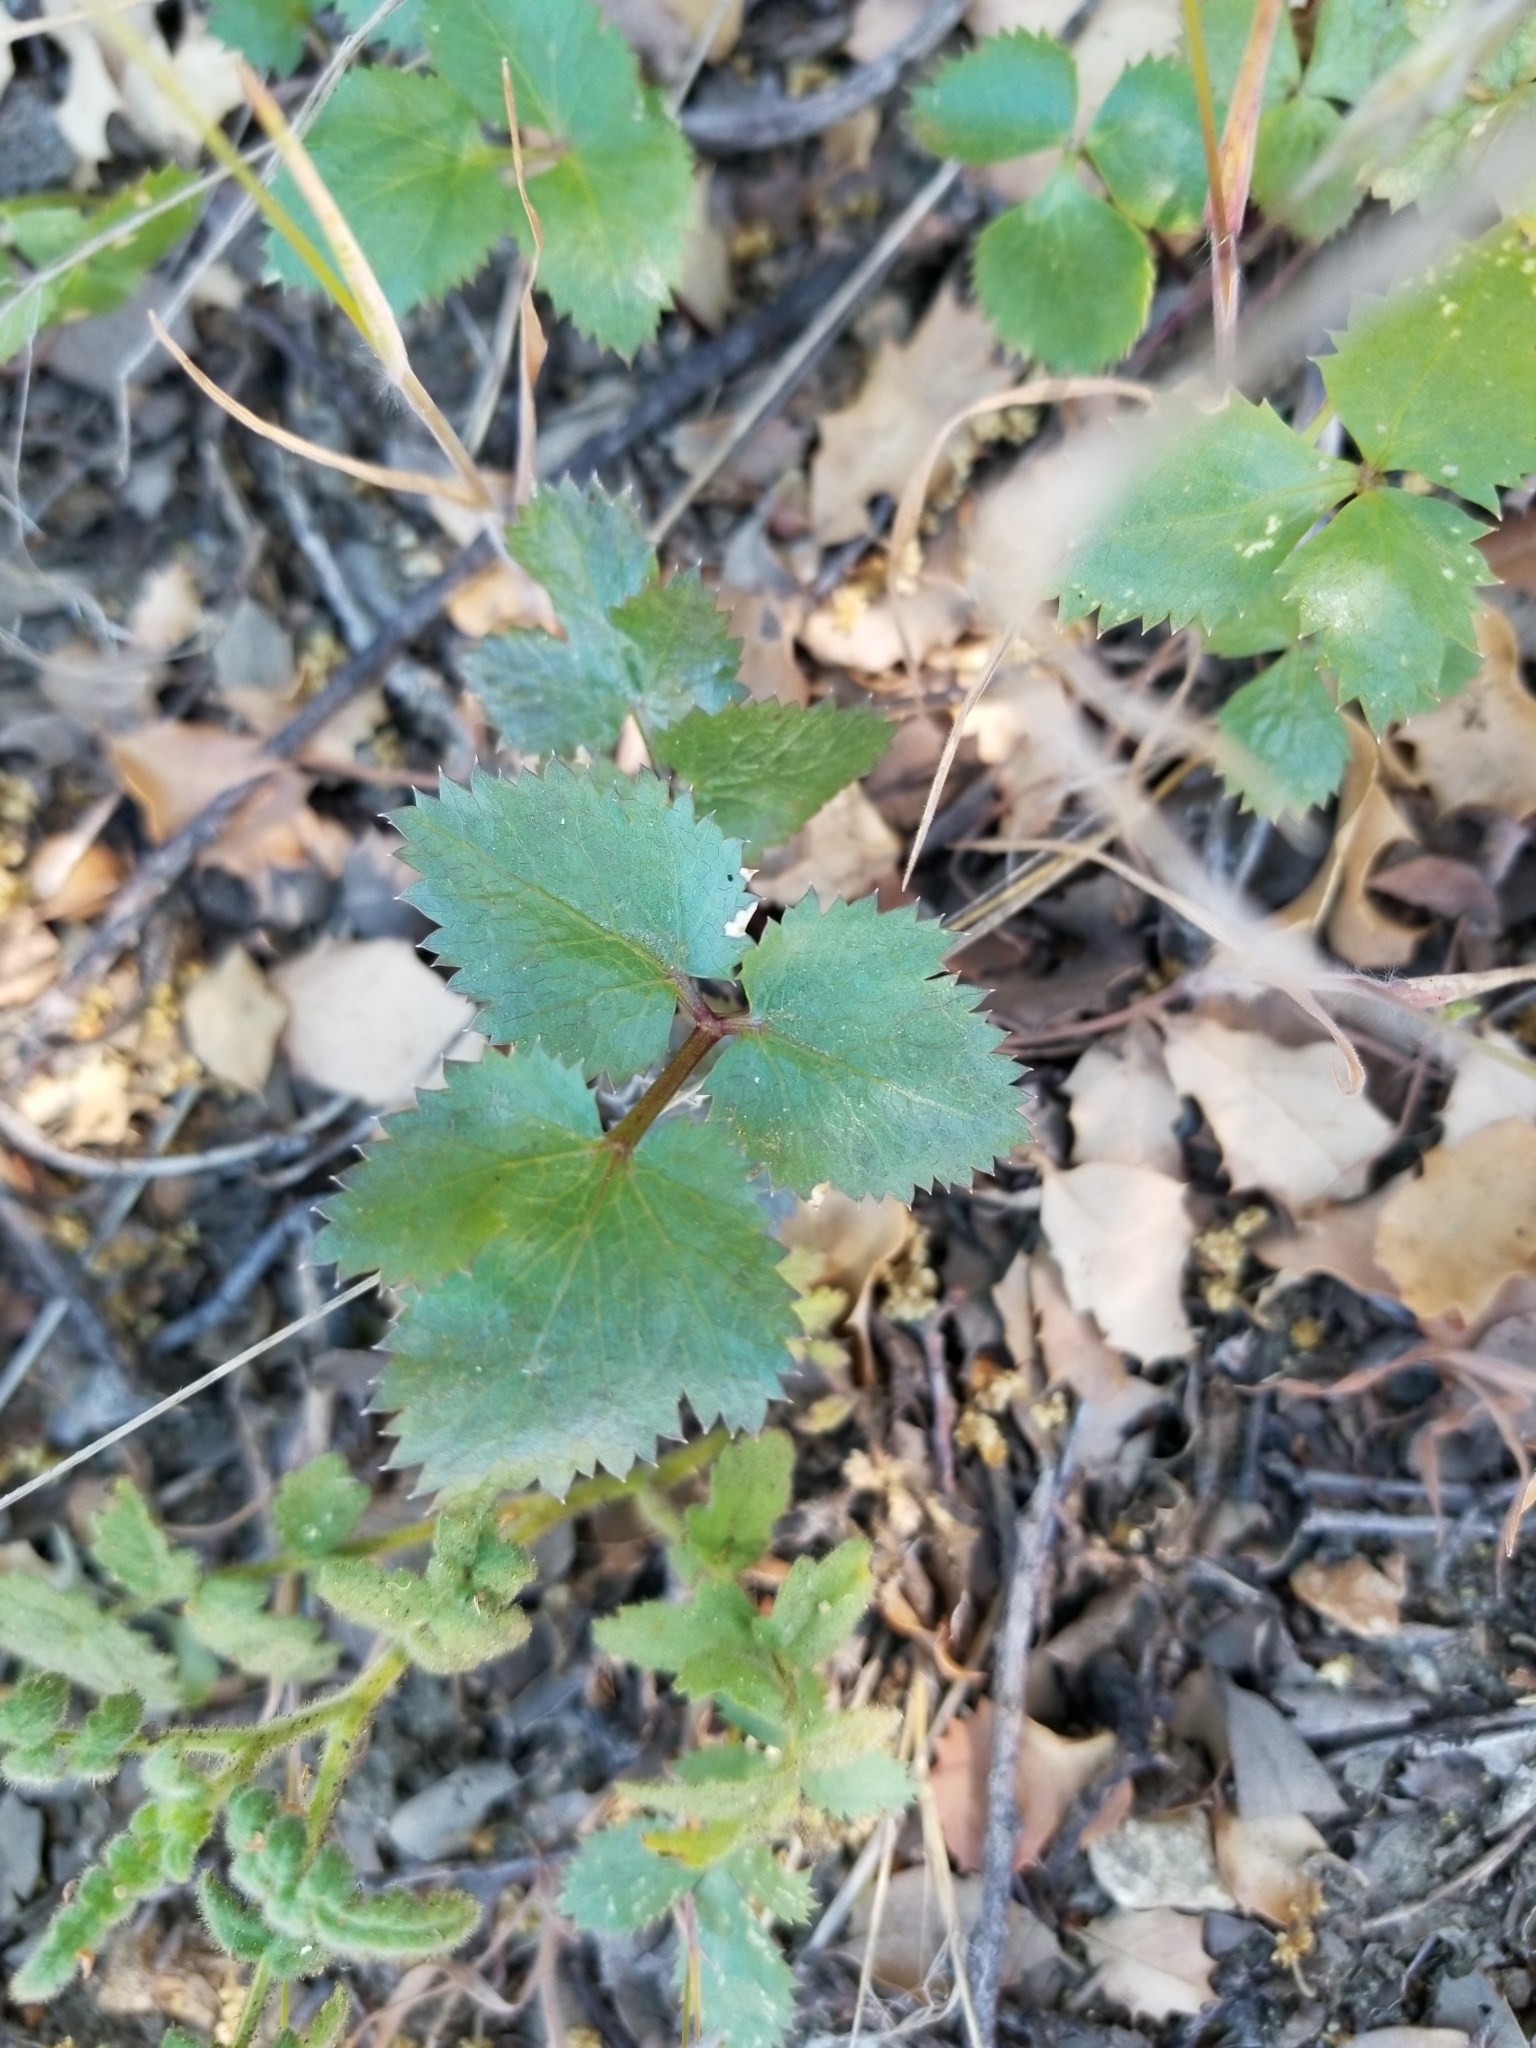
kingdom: Plantae
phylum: Tracheophyta
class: Magnoliopsida
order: Apiales
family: Apiaceae
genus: Tauschia
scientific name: Tauschia arguta
